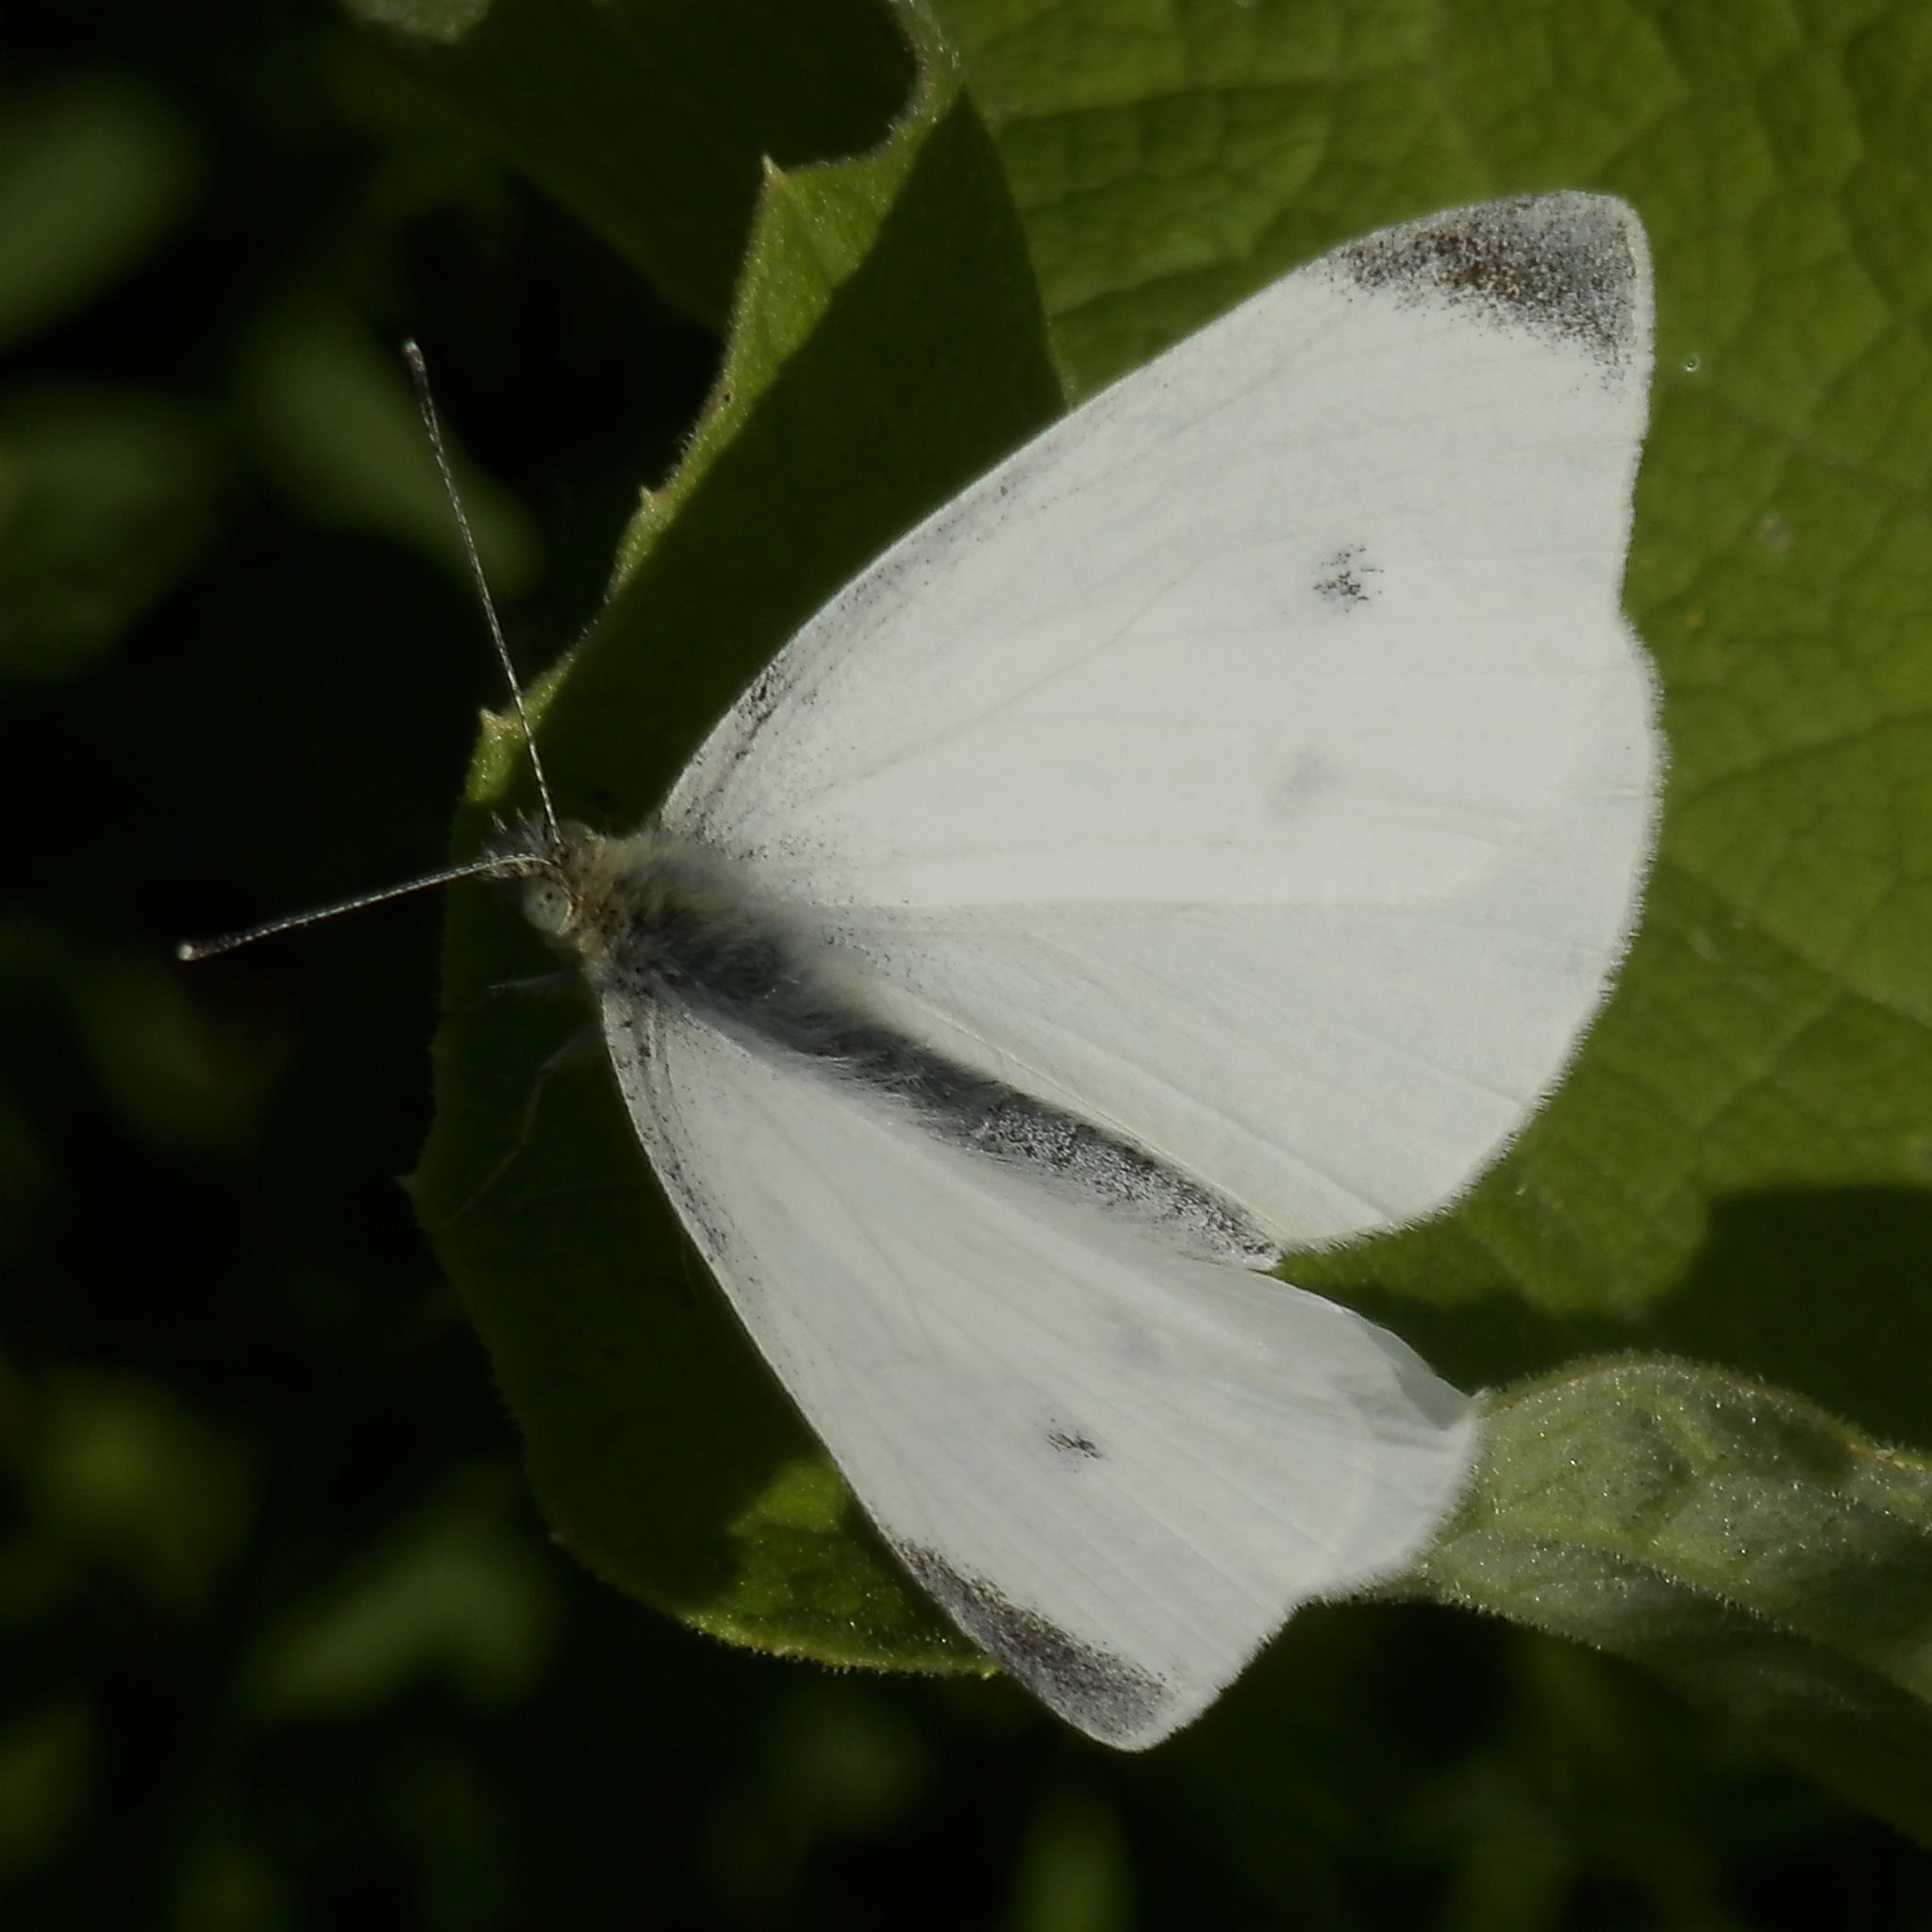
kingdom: Animalia
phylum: Arthropoda
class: Insecta
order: Lepidoptera
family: Pieridae
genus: Pieris
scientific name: Pieris rapae
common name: Small white
